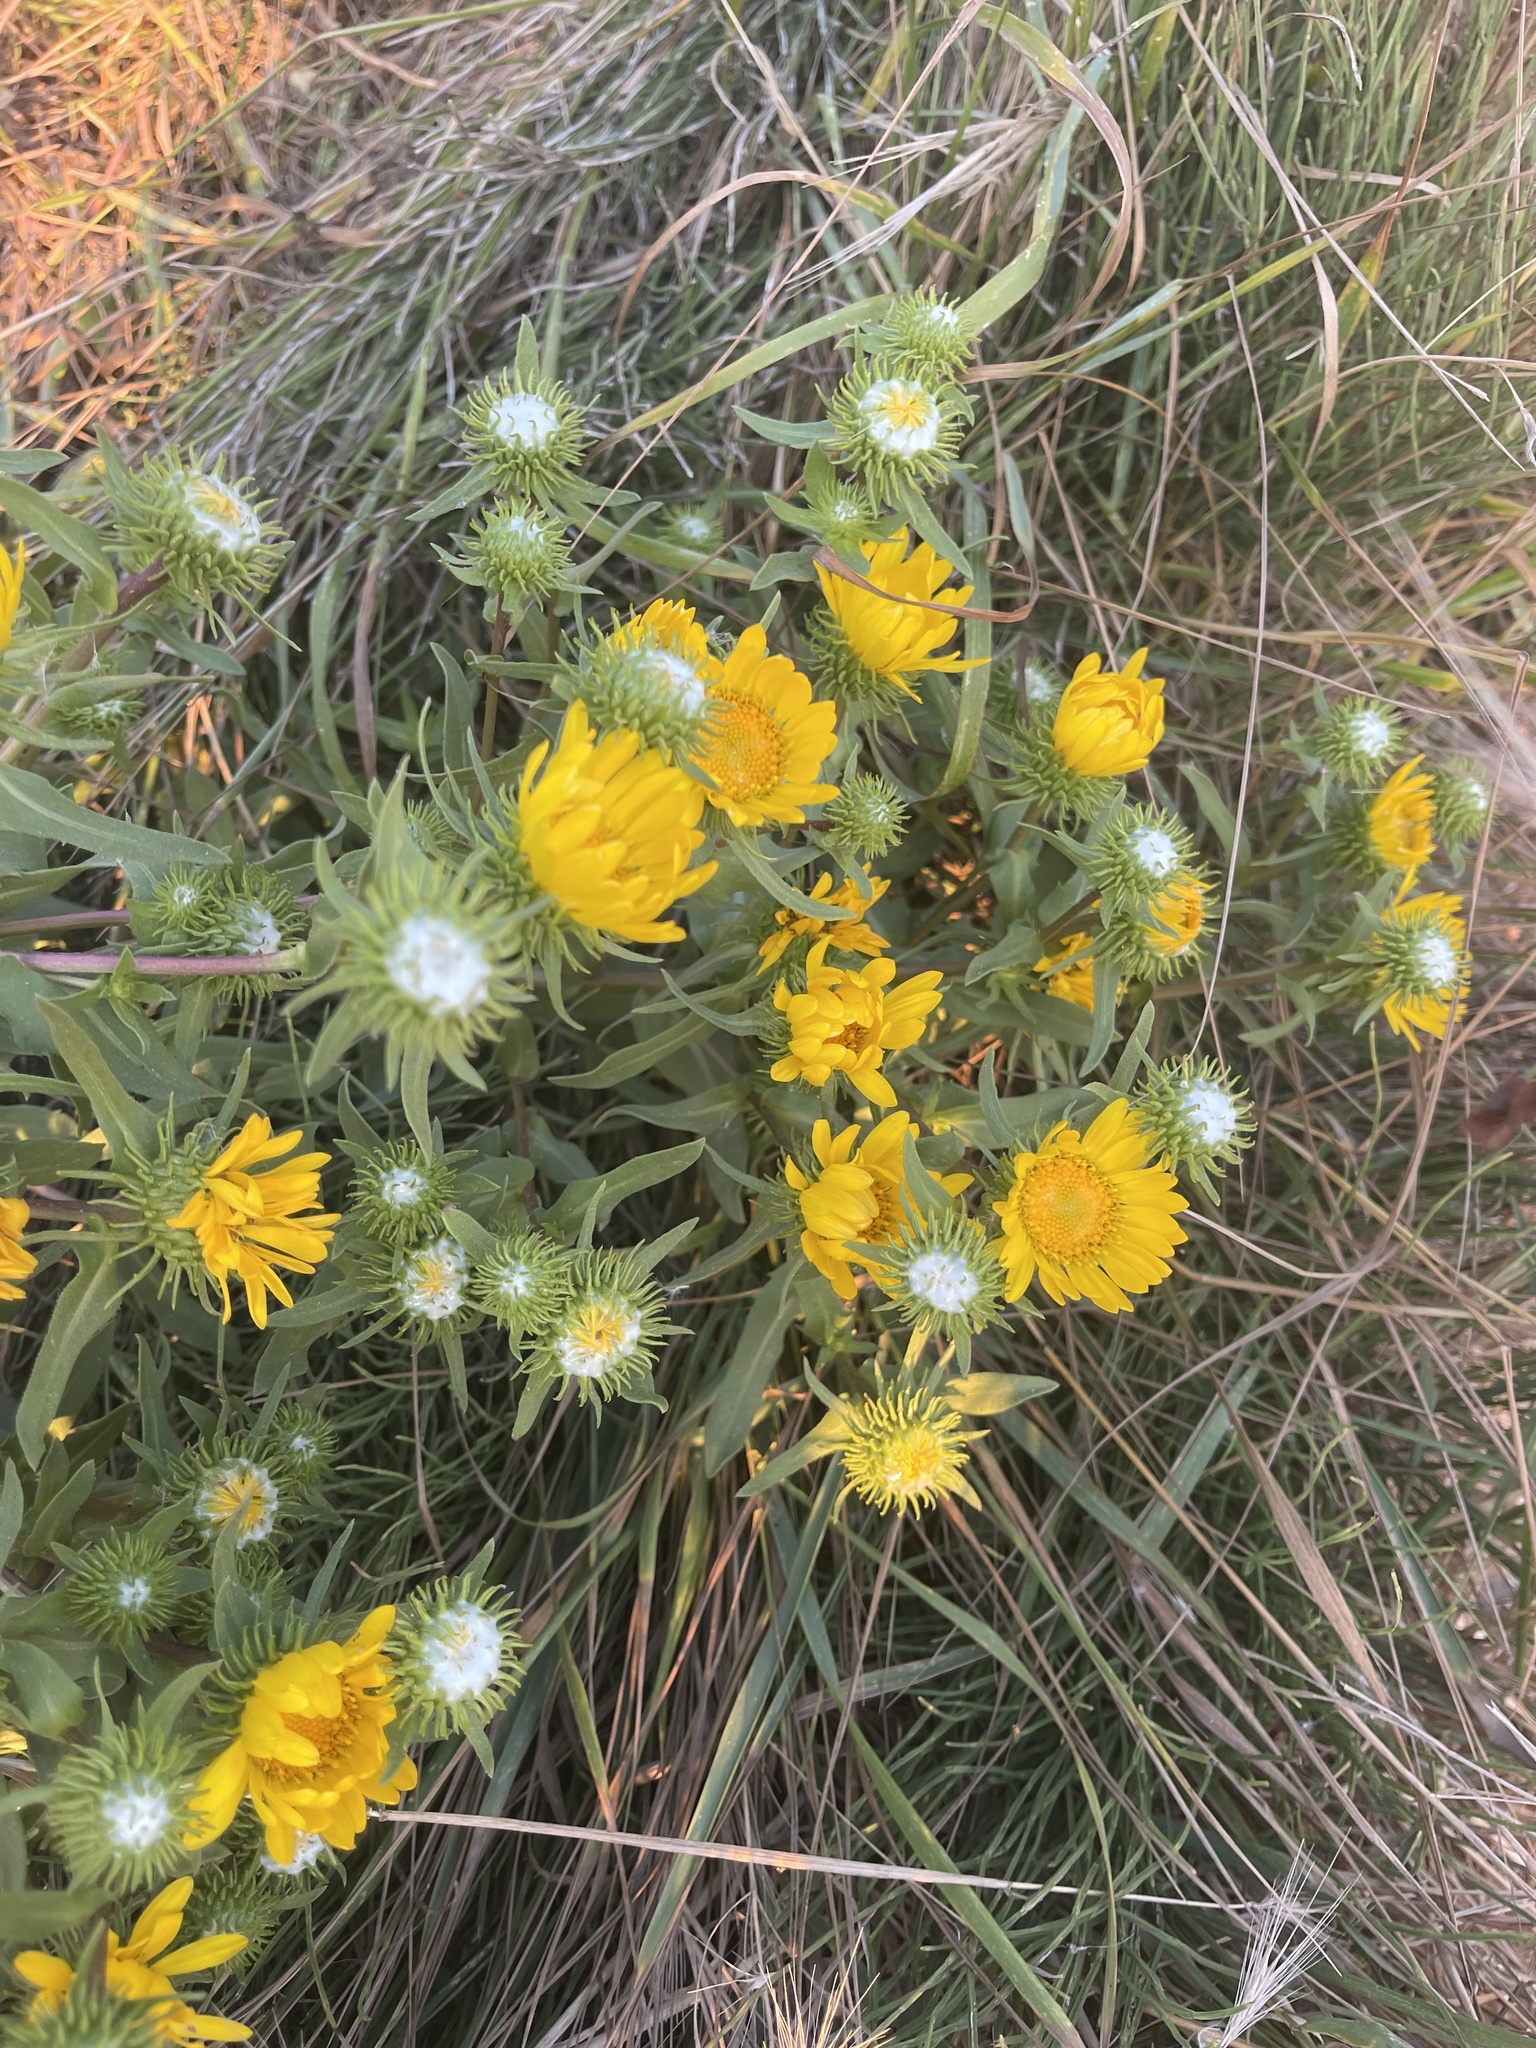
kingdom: Plantae
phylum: Tracheophyta
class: Magnoliopsida
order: Asterales
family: Asteraceae
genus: Grindelia
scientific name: Grindelia hirsutula
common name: Hairy gumweed
